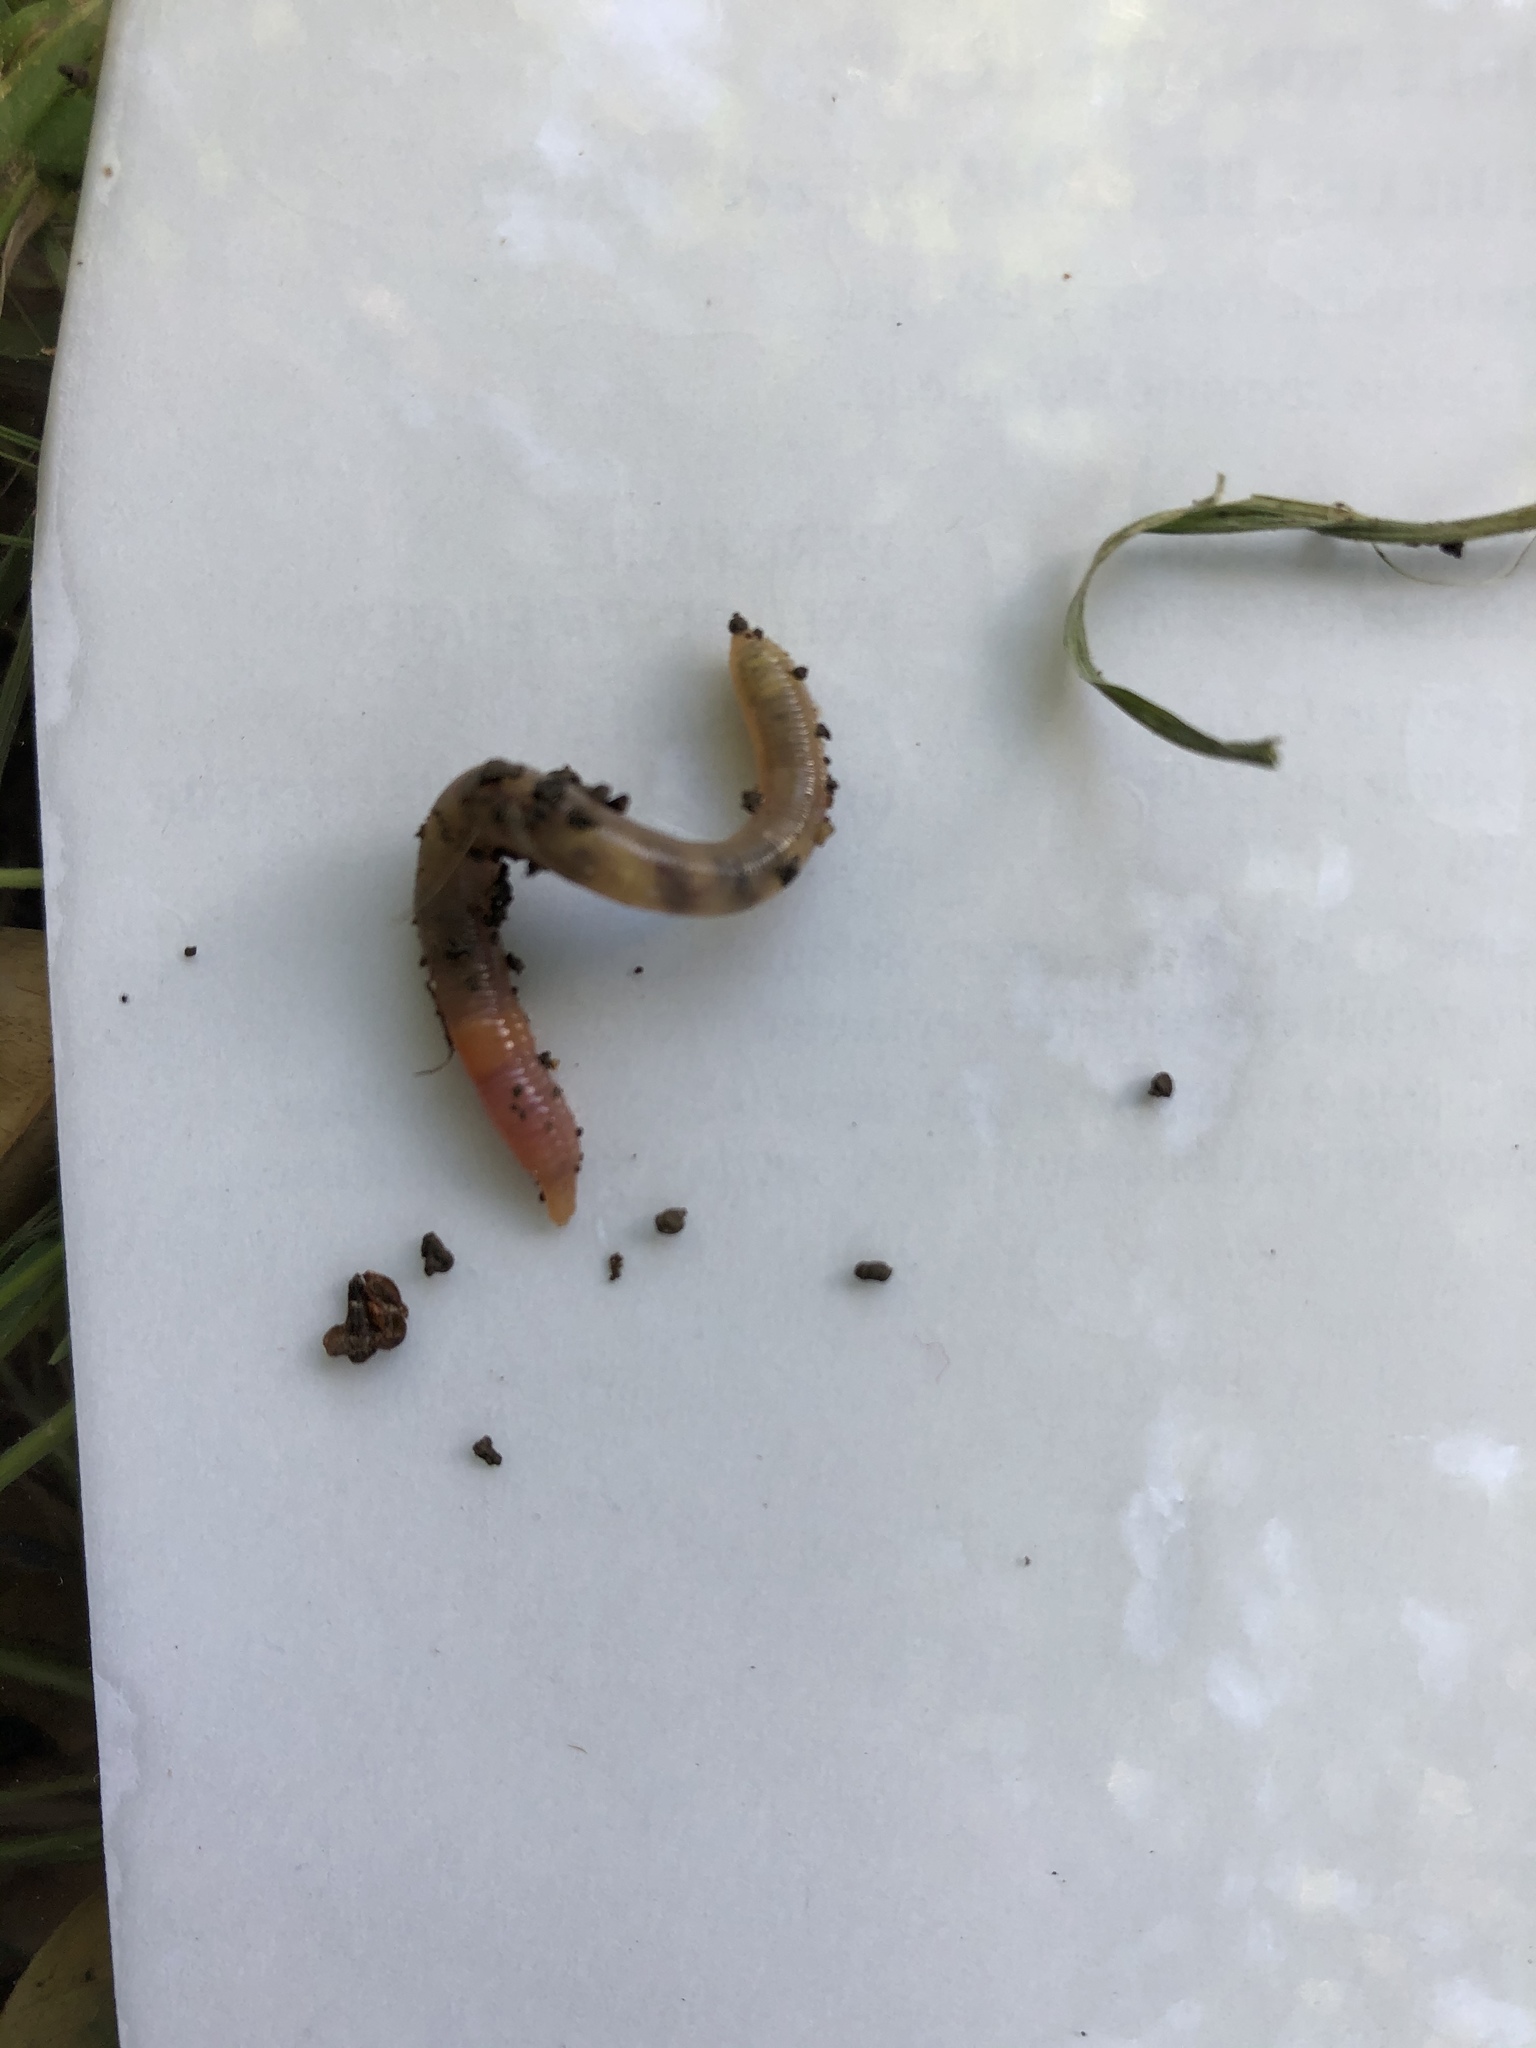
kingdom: Animalia
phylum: Annelida
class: Clitellata
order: Crassiclitellata
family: Lumbricidae
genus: Lumbricus
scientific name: Lumbricus terrestris
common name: Common earthworm
